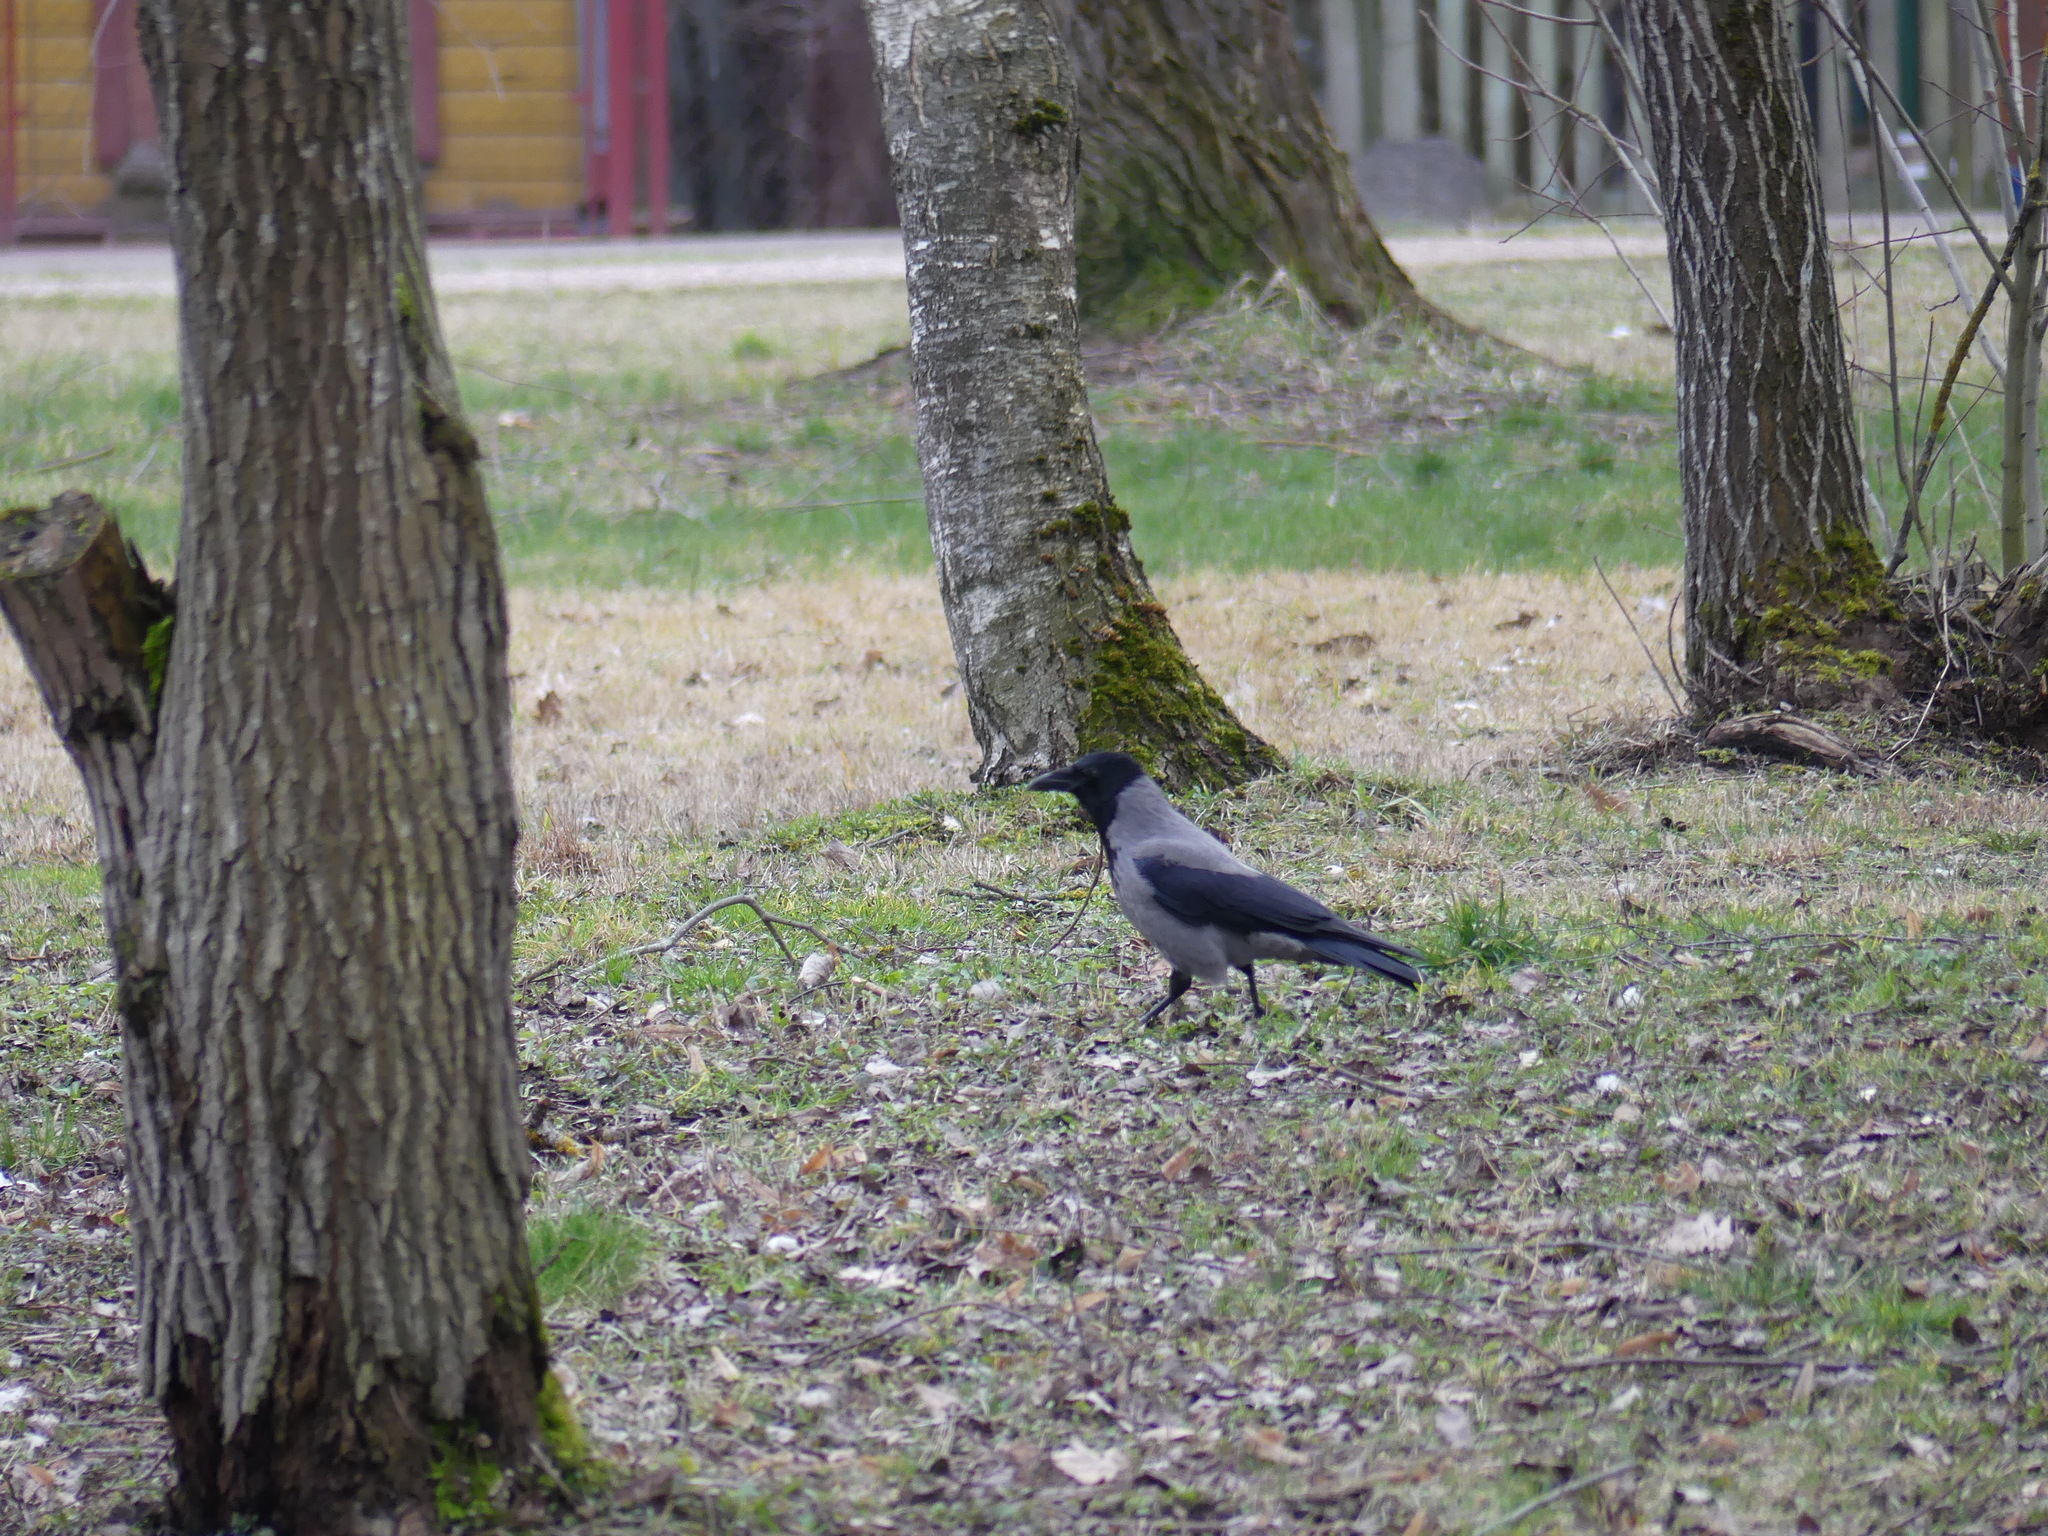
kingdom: Animalia
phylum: Chordata
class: Aves
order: Passeriformes
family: Corvidae
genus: Corvus
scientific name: Corvus cornix
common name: Hooded crow
